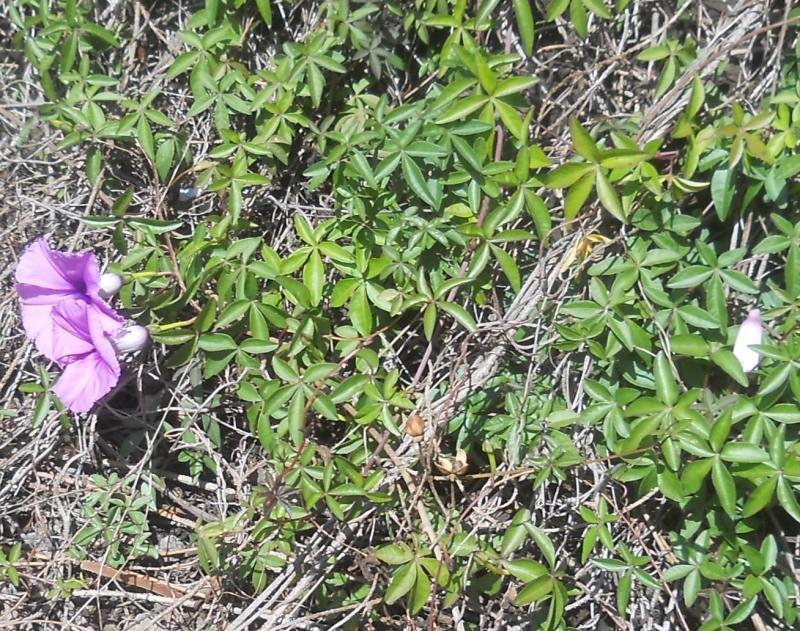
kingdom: Plantae
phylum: Tracheophyta
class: Magnoliopsida
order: Solanales
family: Convolvulaceae
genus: Ipomoea
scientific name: Ipomoea cairica
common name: Mile a minute vine
